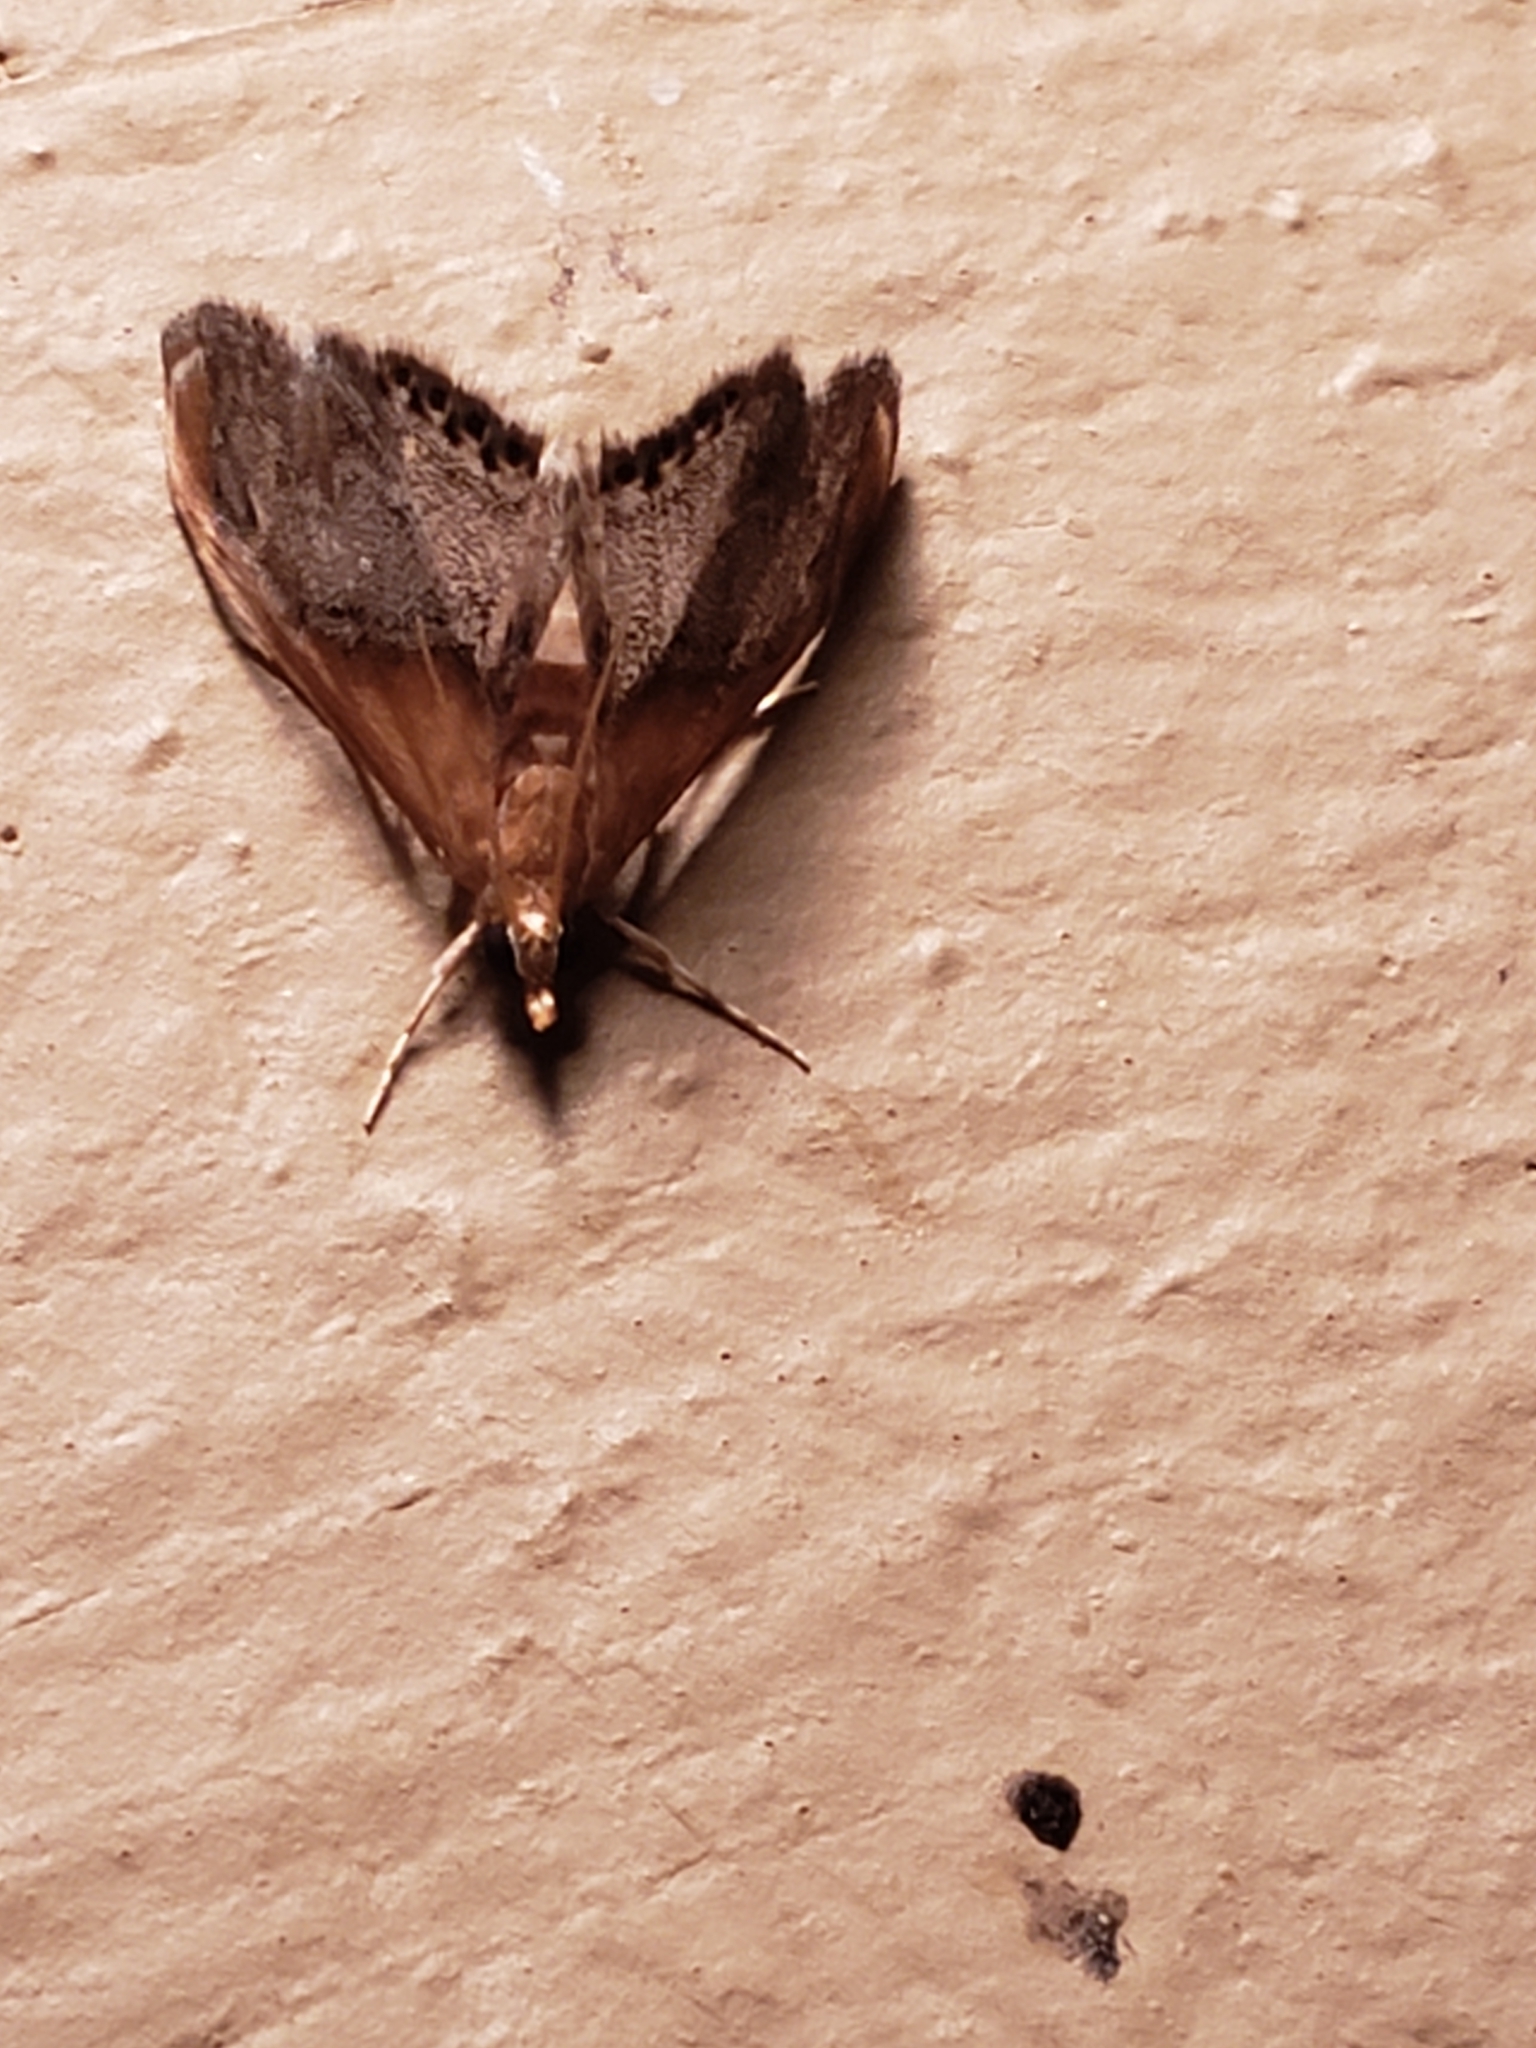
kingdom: Animalia
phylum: Arthropoda
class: Insecta
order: Lepidoptera
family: Crambidae
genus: Chalcoela
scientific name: Chalcoela iphitalis
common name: Sooty-winged chalcoela moth
